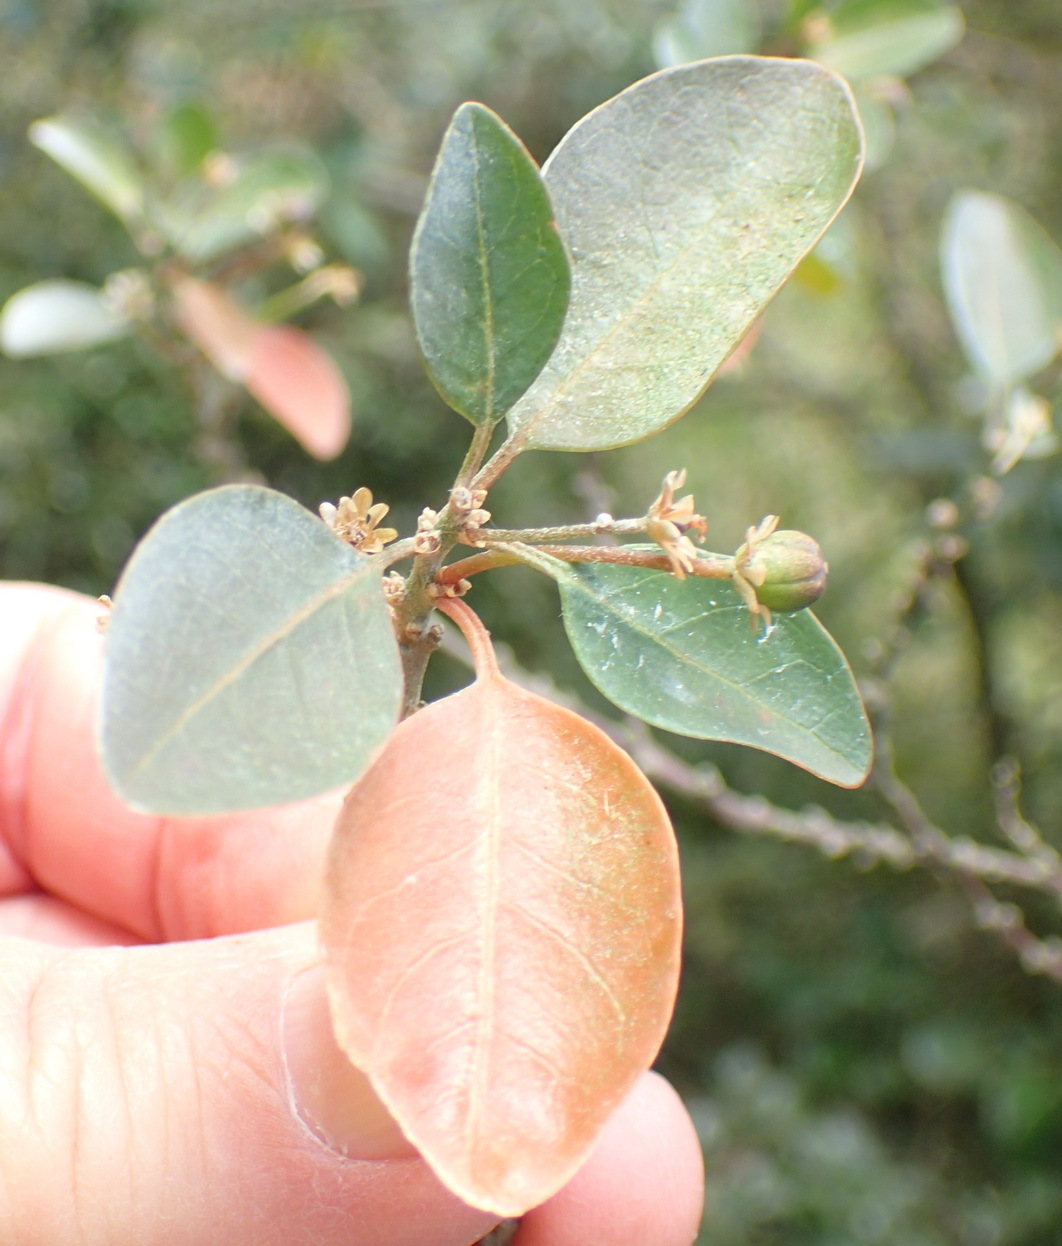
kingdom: Plantae
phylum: Tracheophyta
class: Magnoliopsida
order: Malpighiales
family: Peraceae
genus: Clutia
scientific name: Clutia pulchella
